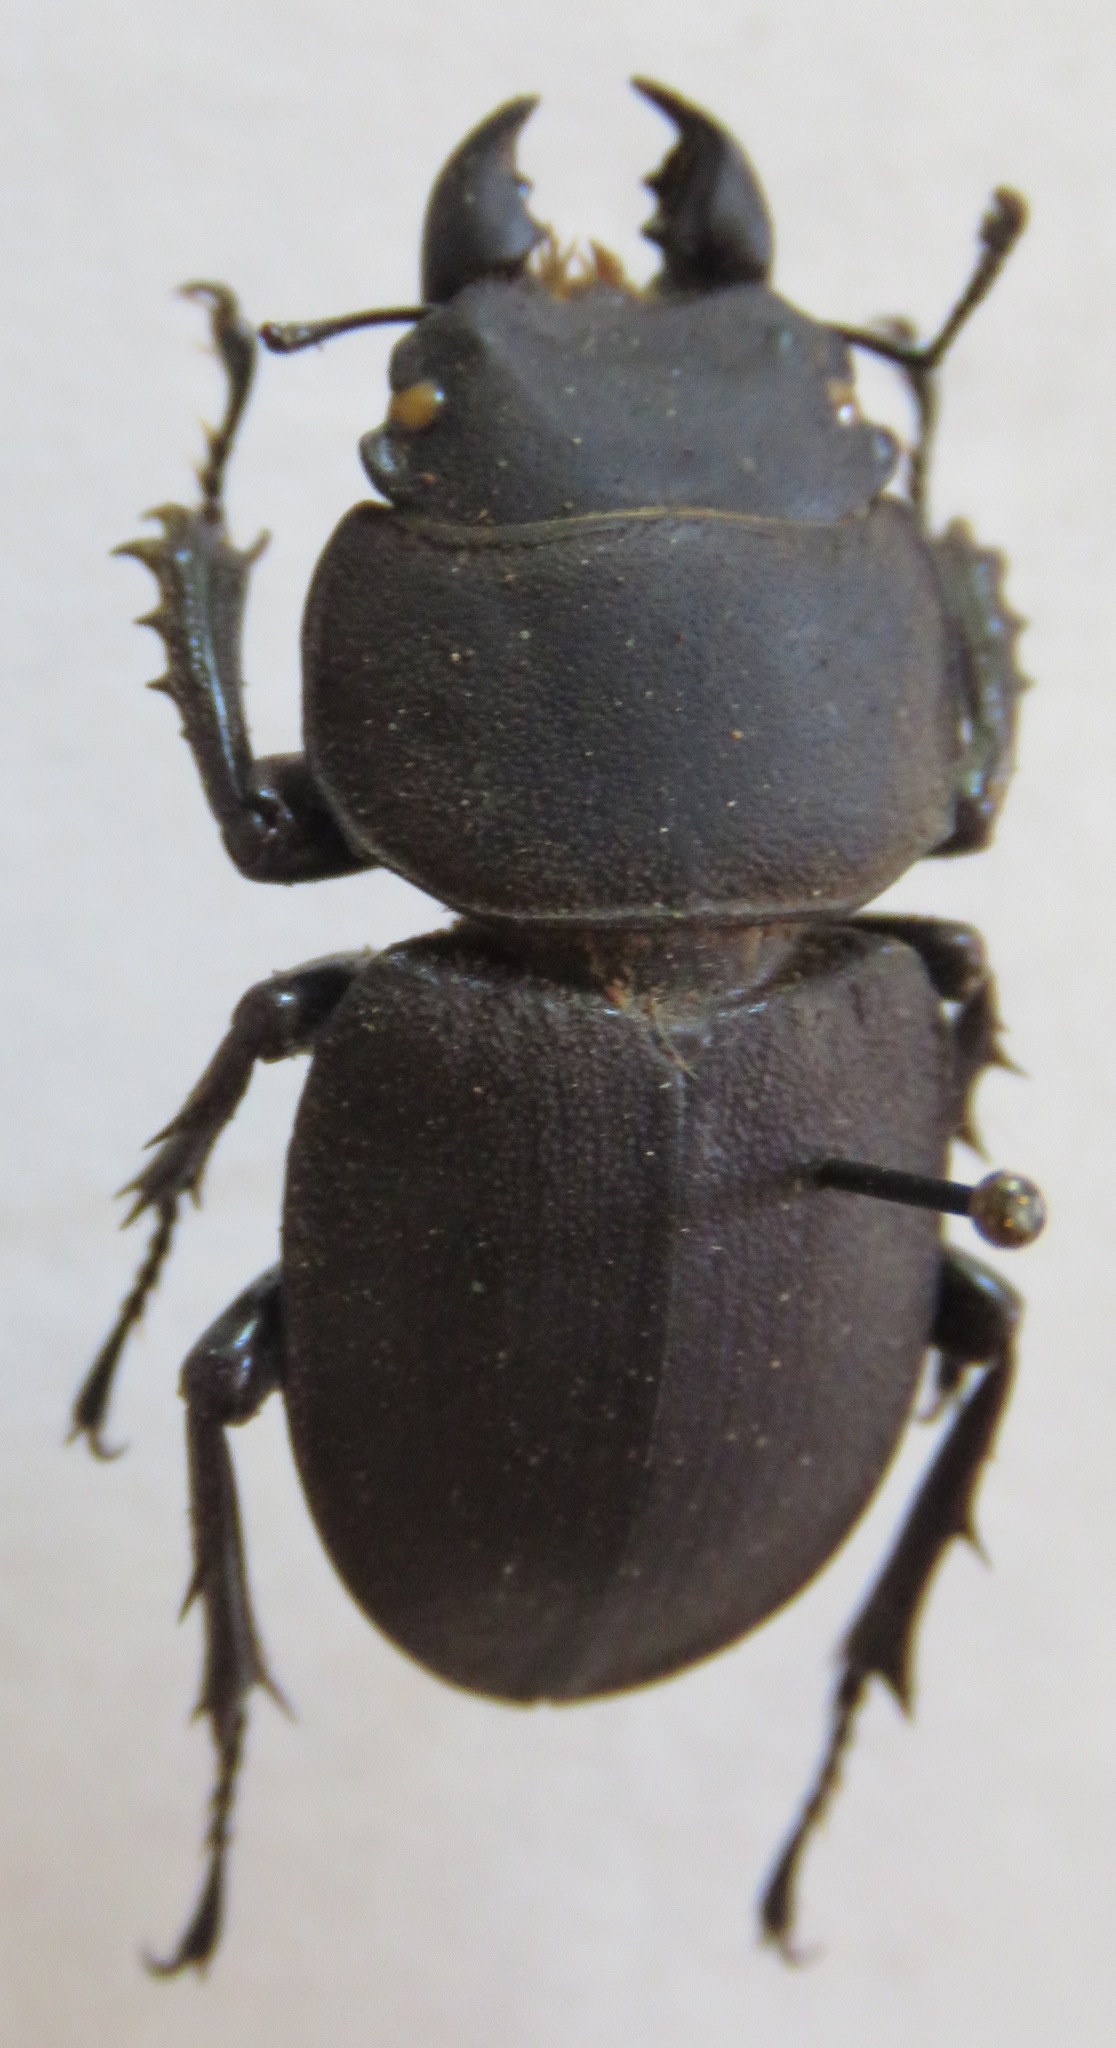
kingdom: Animalia
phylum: Arthropoda
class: Insecta
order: Coleoptera
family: Lucanidae
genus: Apterodorcus
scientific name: Apterodorcus bacchus
